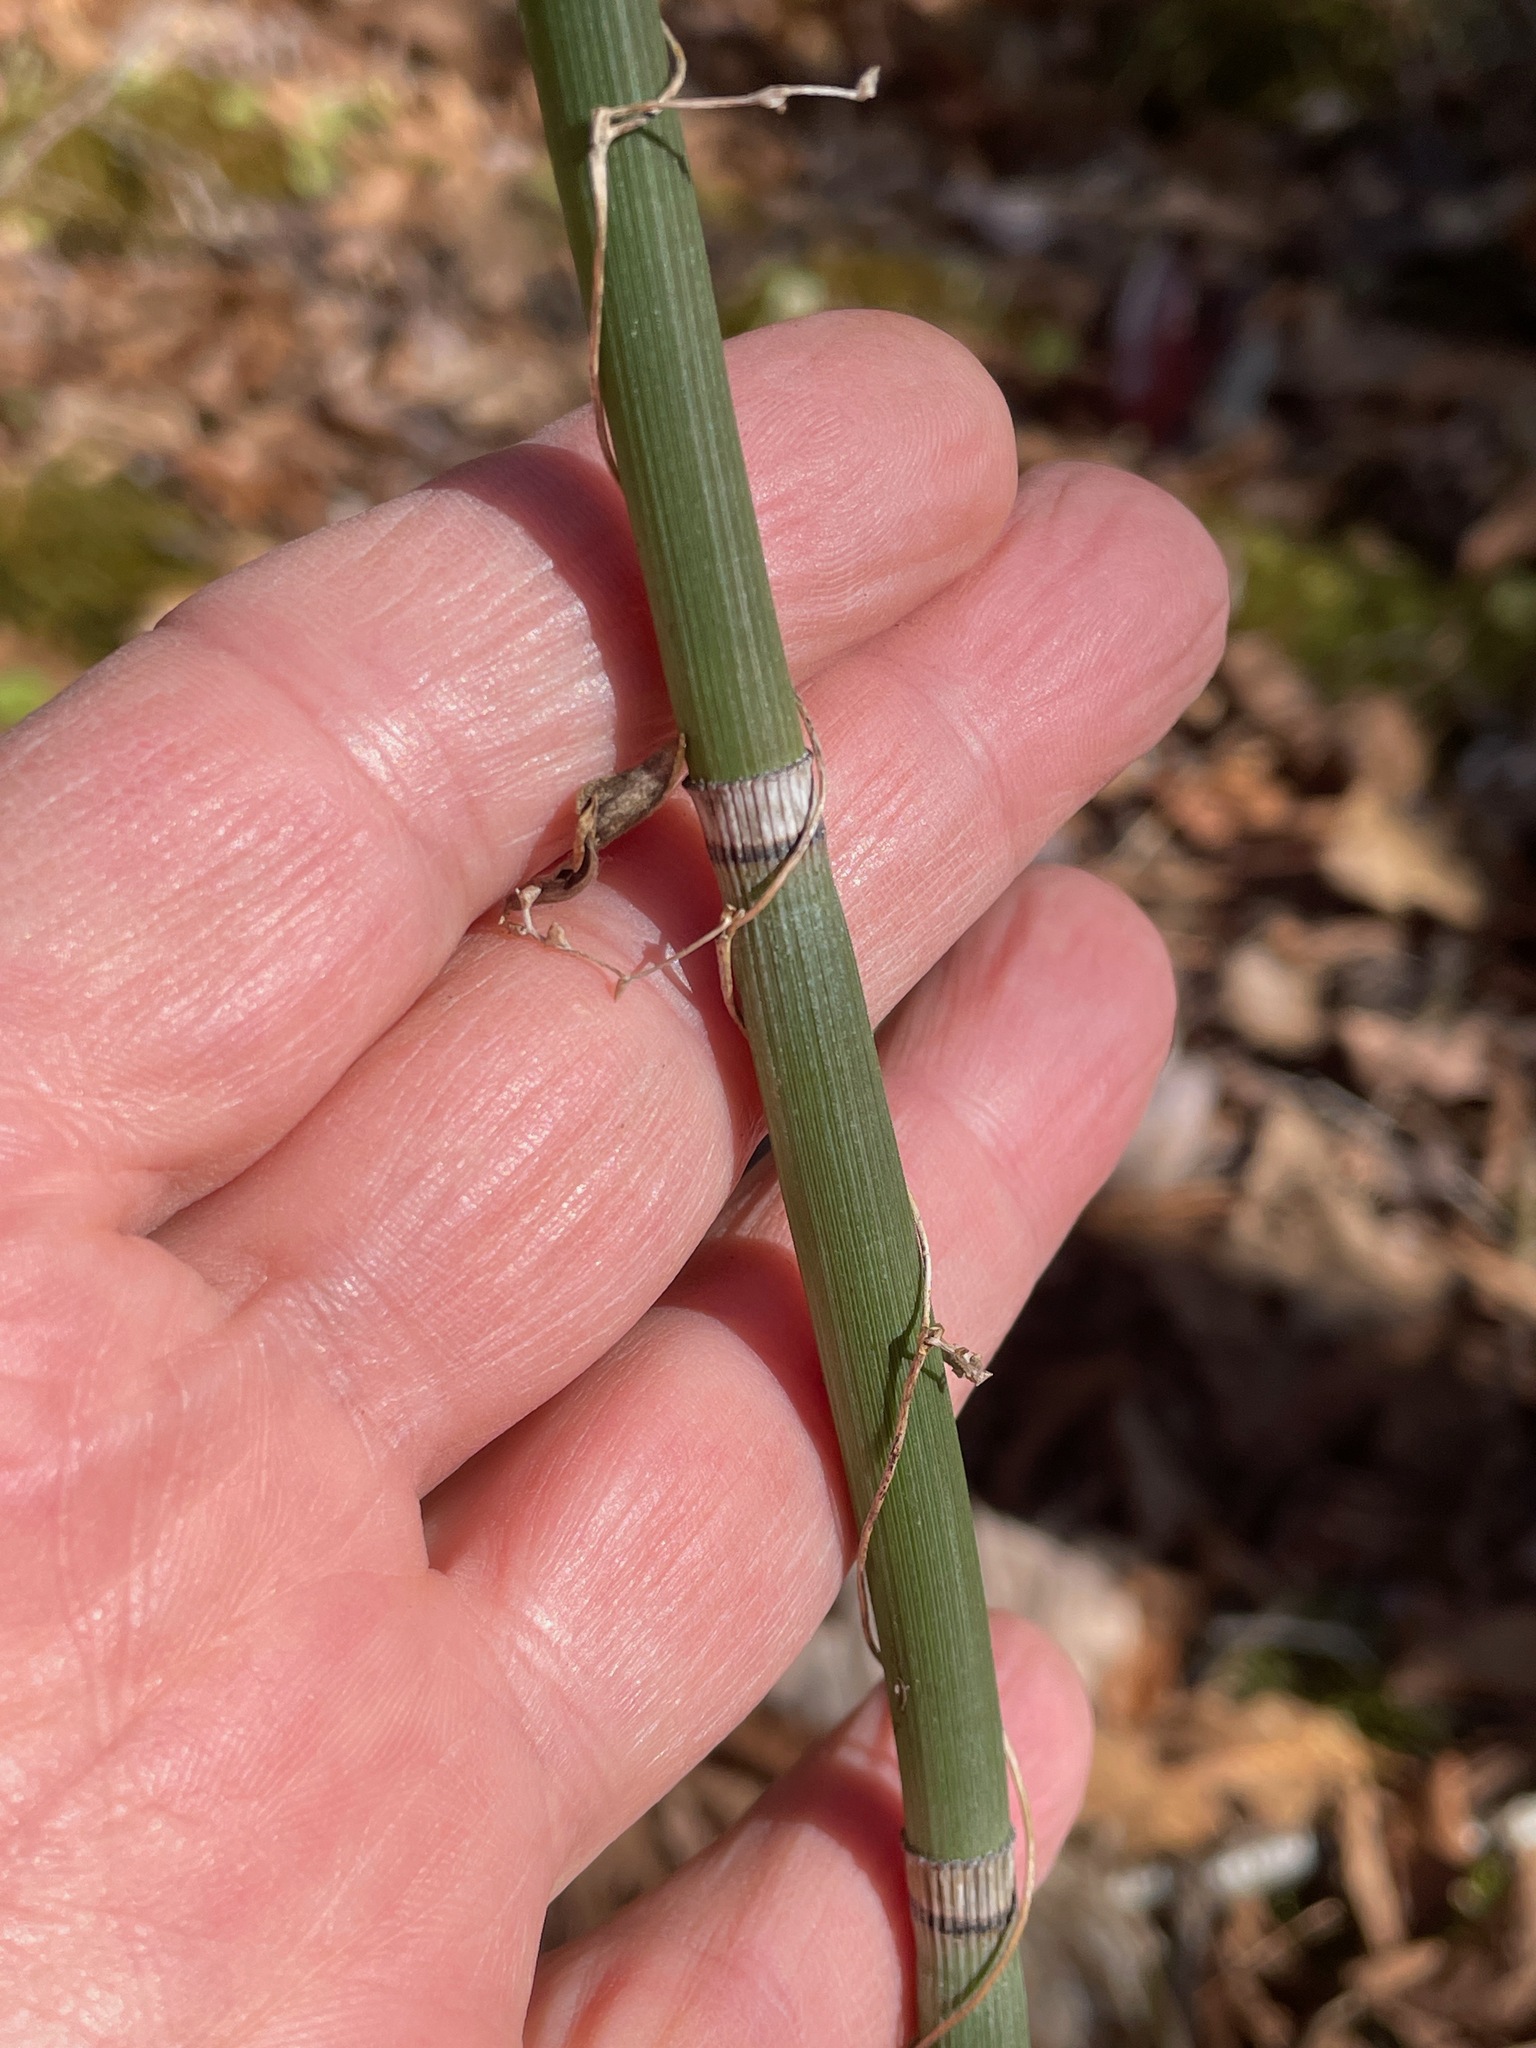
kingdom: Plantae
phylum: Tracheophyta
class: Polypodiopsida
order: Equisetales
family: Equisetaceae
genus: Equisetum
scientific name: Equisetum hyemale
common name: Rough horsetail
